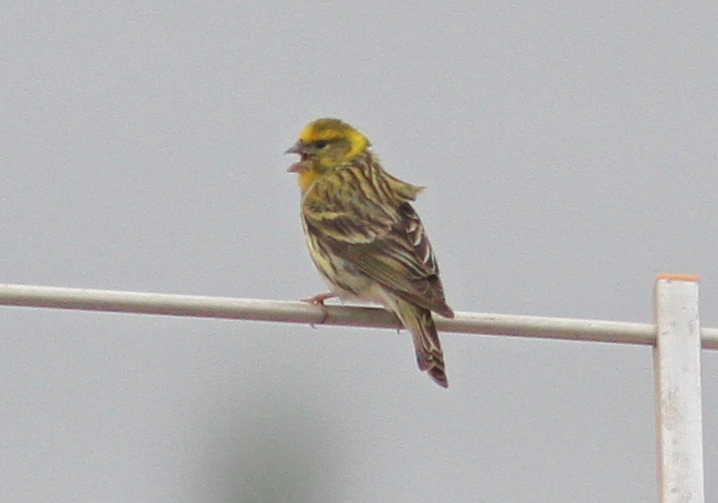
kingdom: Animalia
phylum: Chordata
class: Aves
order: Passeriformes
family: Fringillidae
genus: Serinus
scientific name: Serinus serinus
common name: European serin
